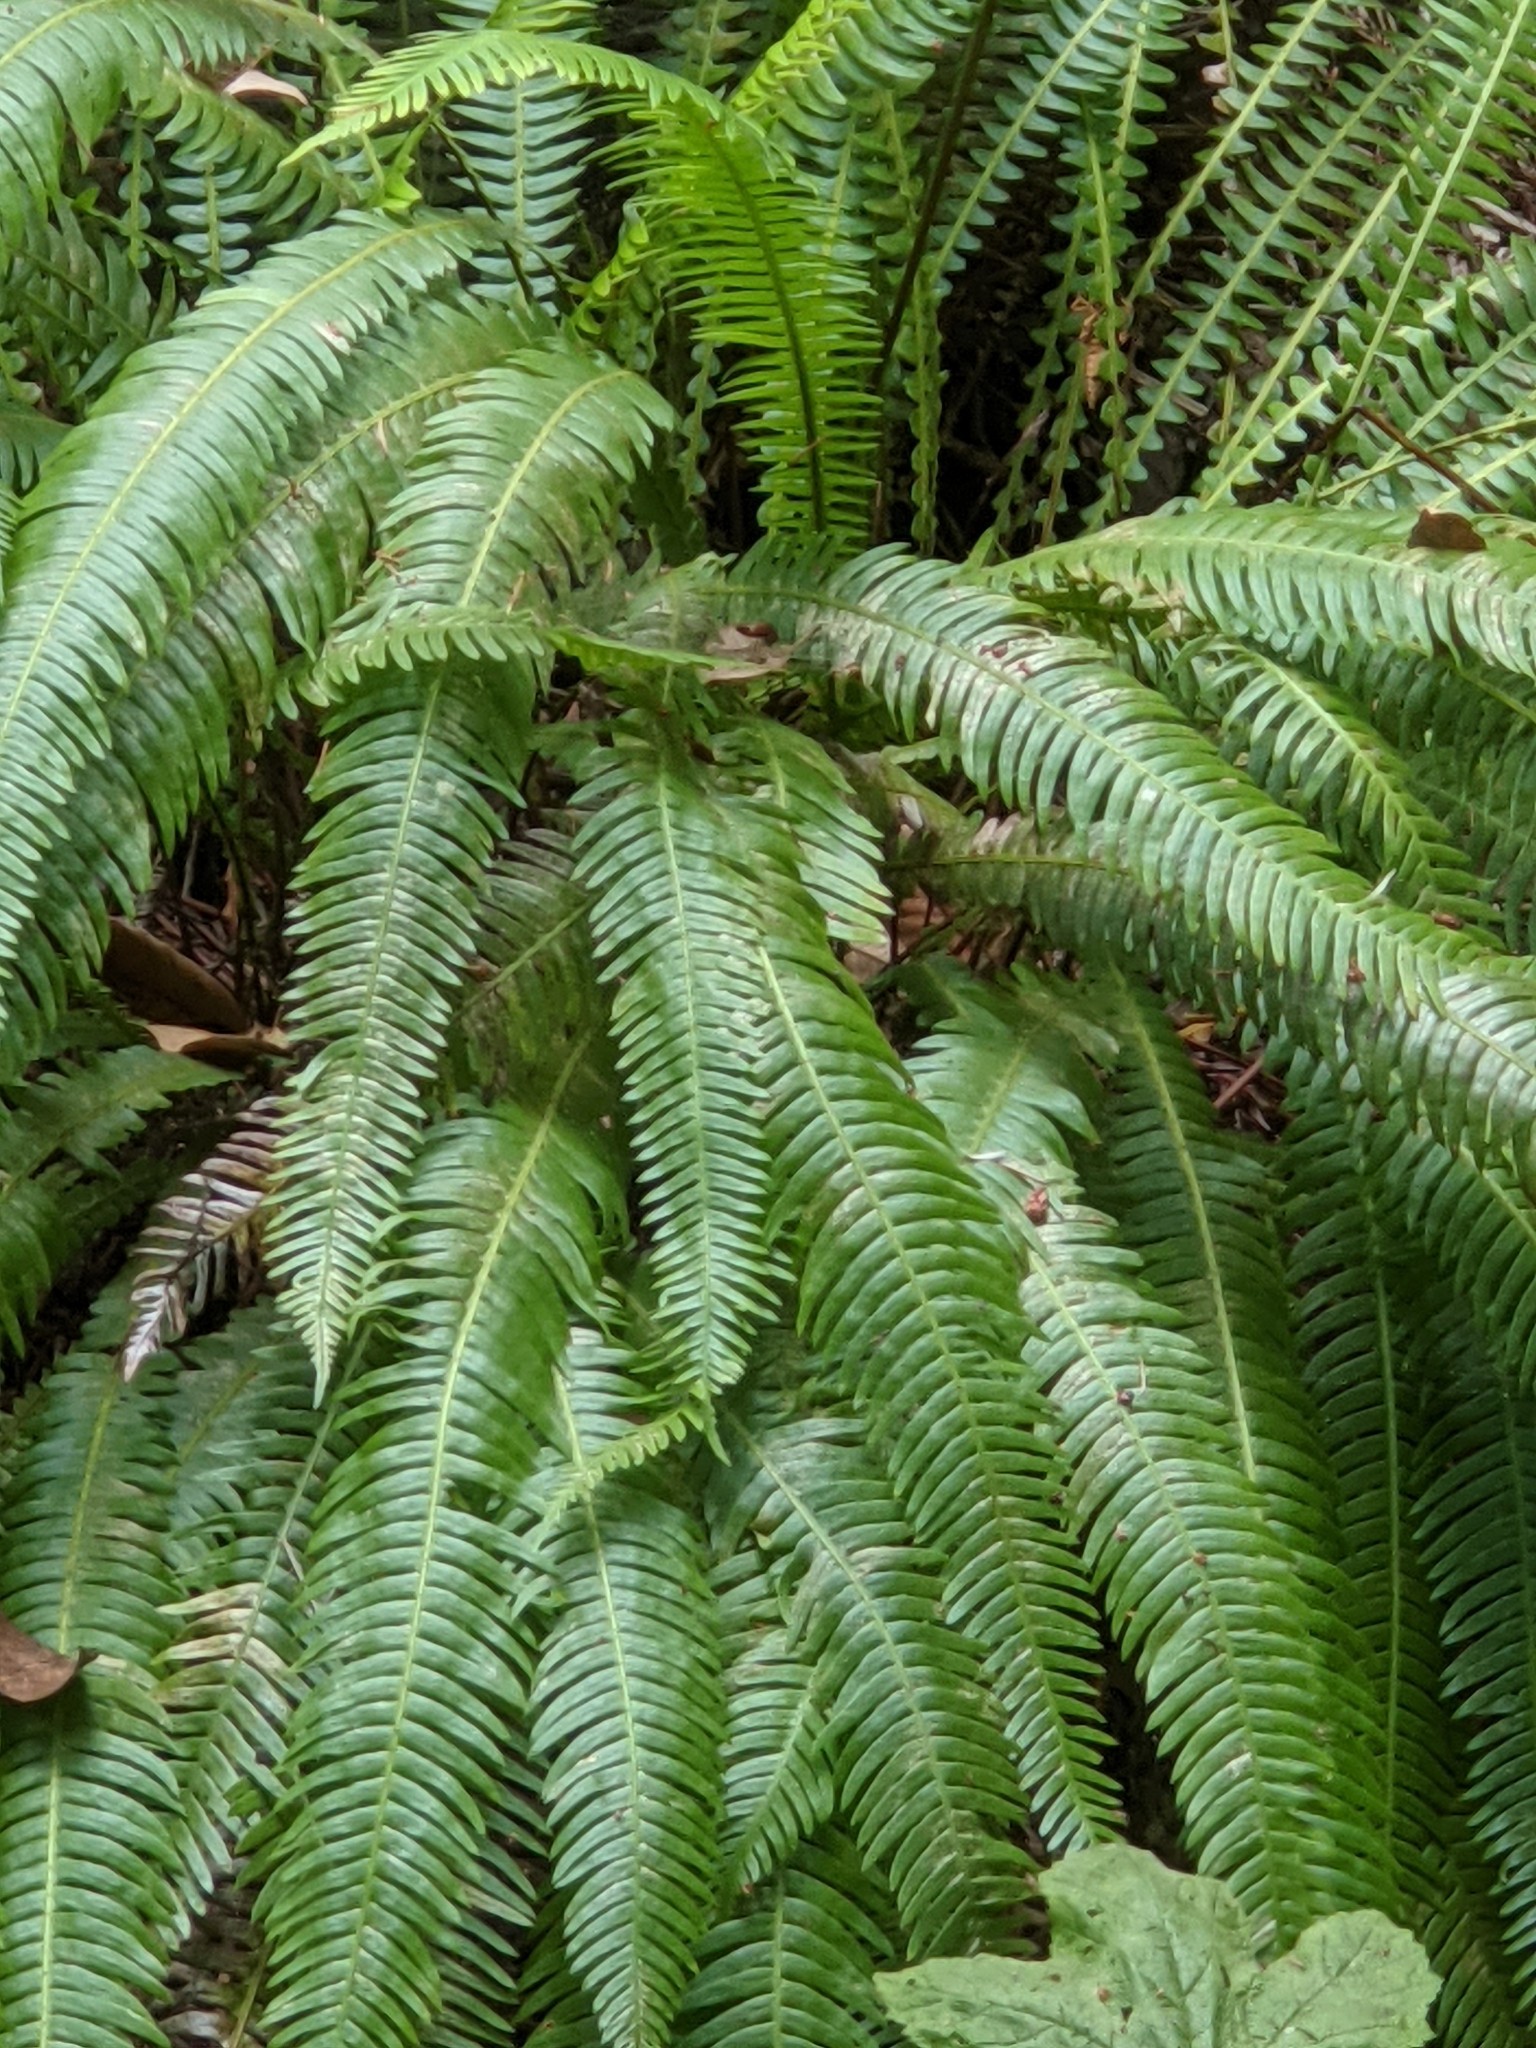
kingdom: Plantae
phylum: Tracheophyta
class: Polypodiopsida
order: Polypodiales
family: Blechnaceae
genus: Struthiopteris
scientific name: Struthiopteris spicant
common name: Deer fern
